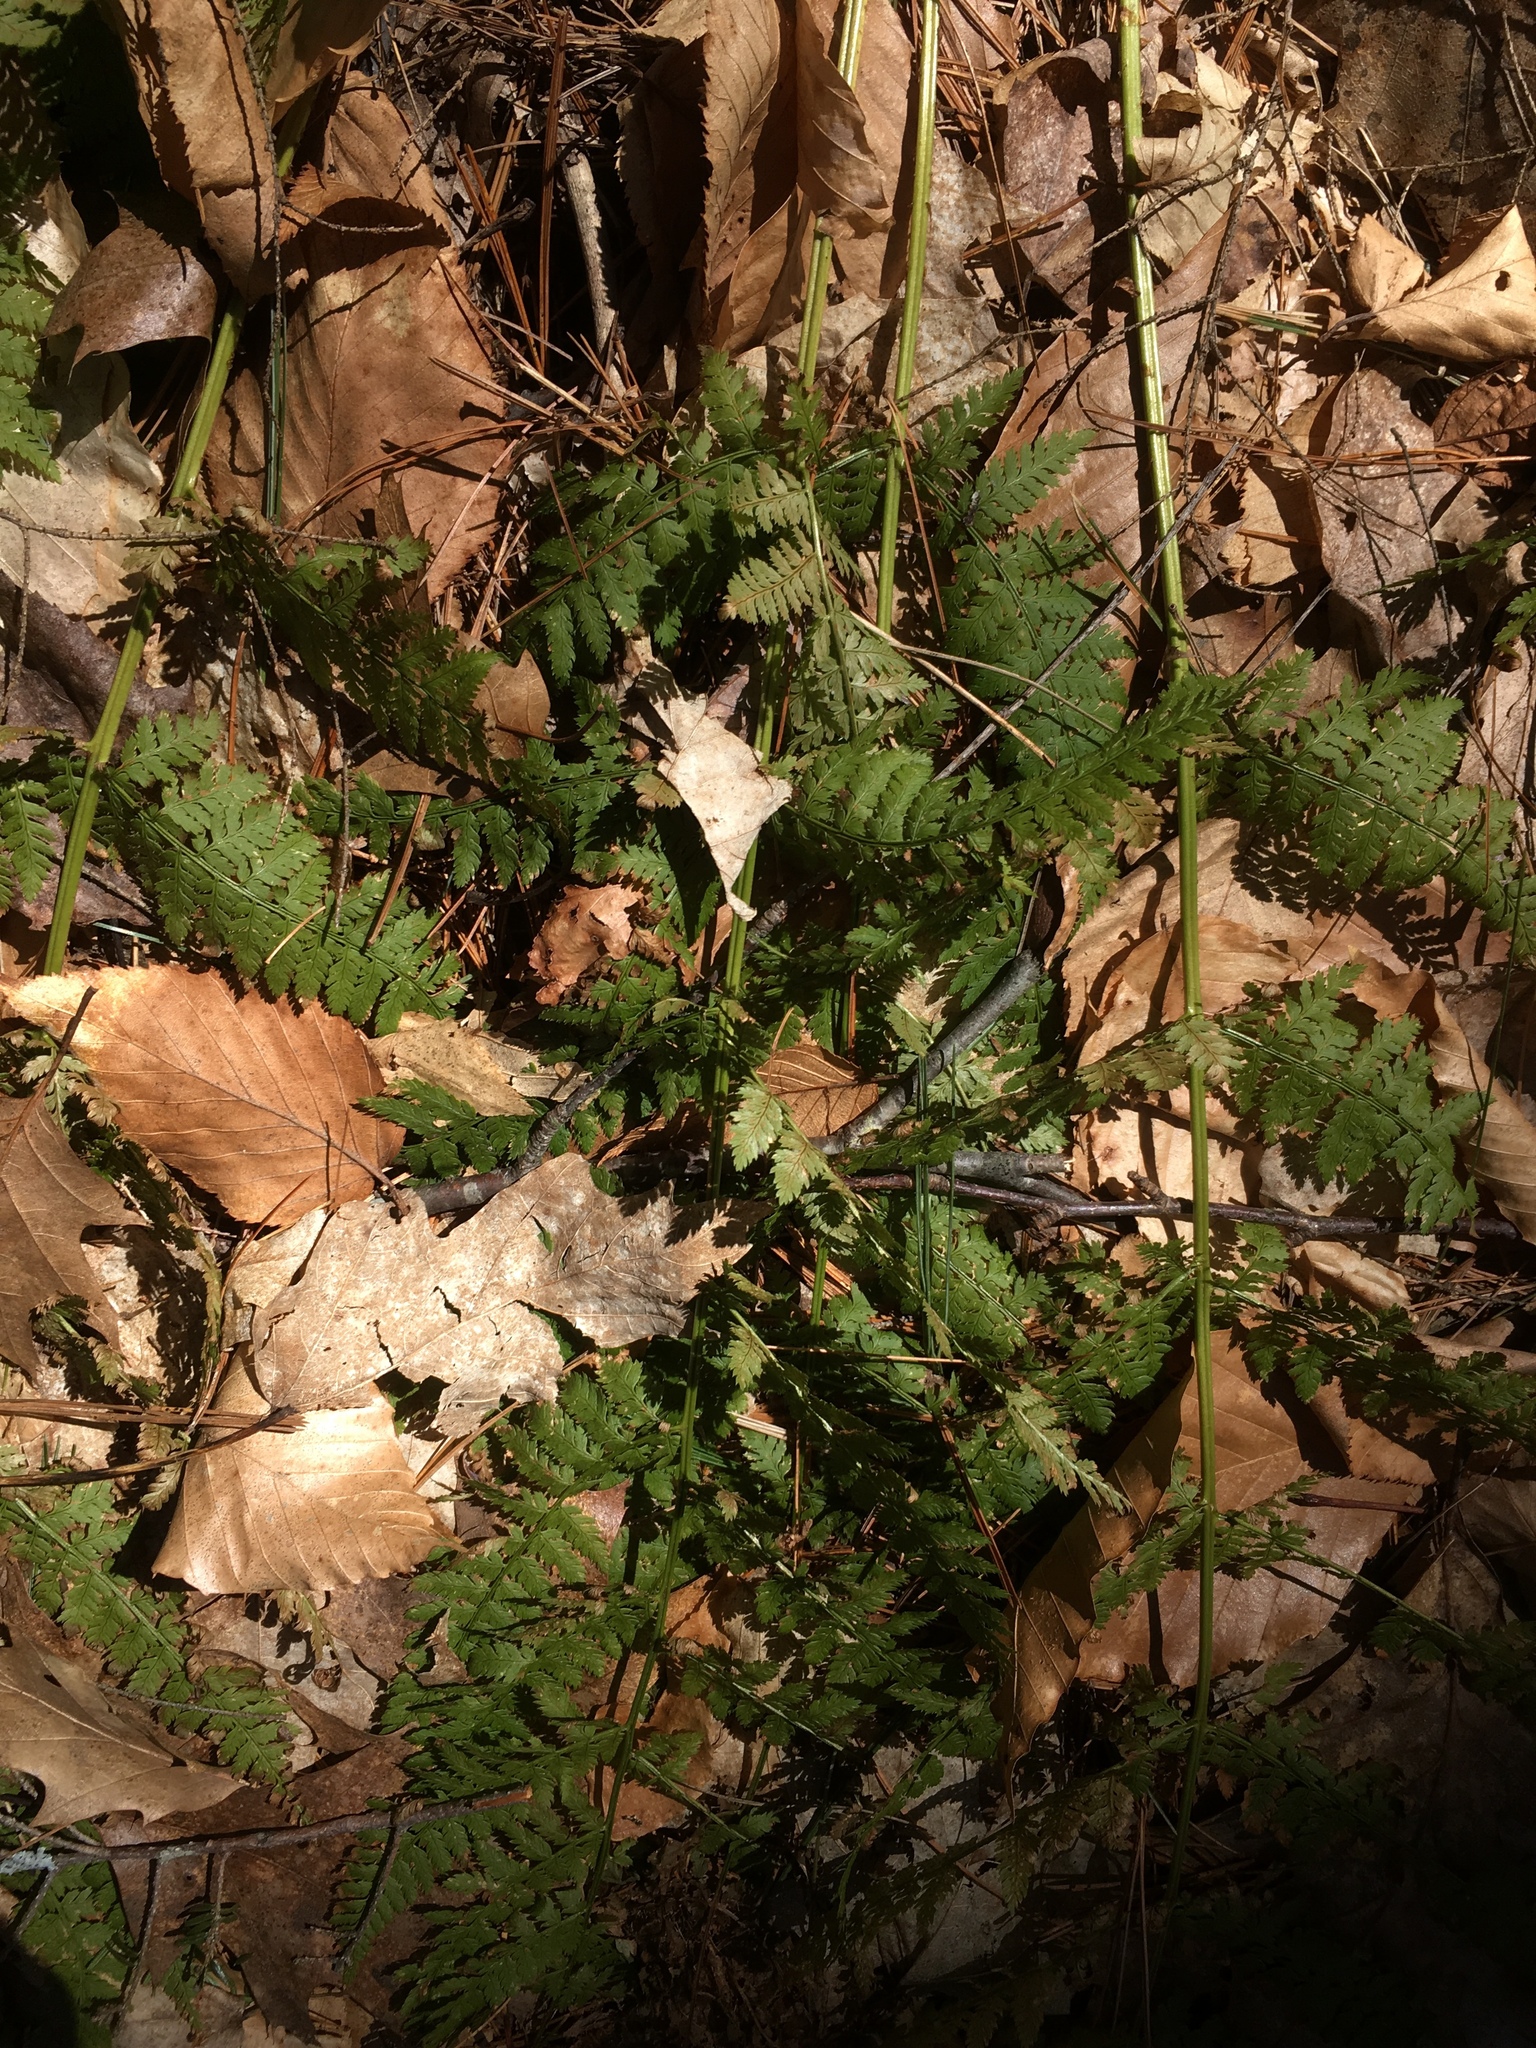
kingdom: Plantae
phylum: Tracheophyta
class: Polypodiopsida
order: Polypodiales
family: Dryopteridaceae
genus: Dryopteris
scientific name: Dryopteris intermedia
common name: Evergreen wood fern
